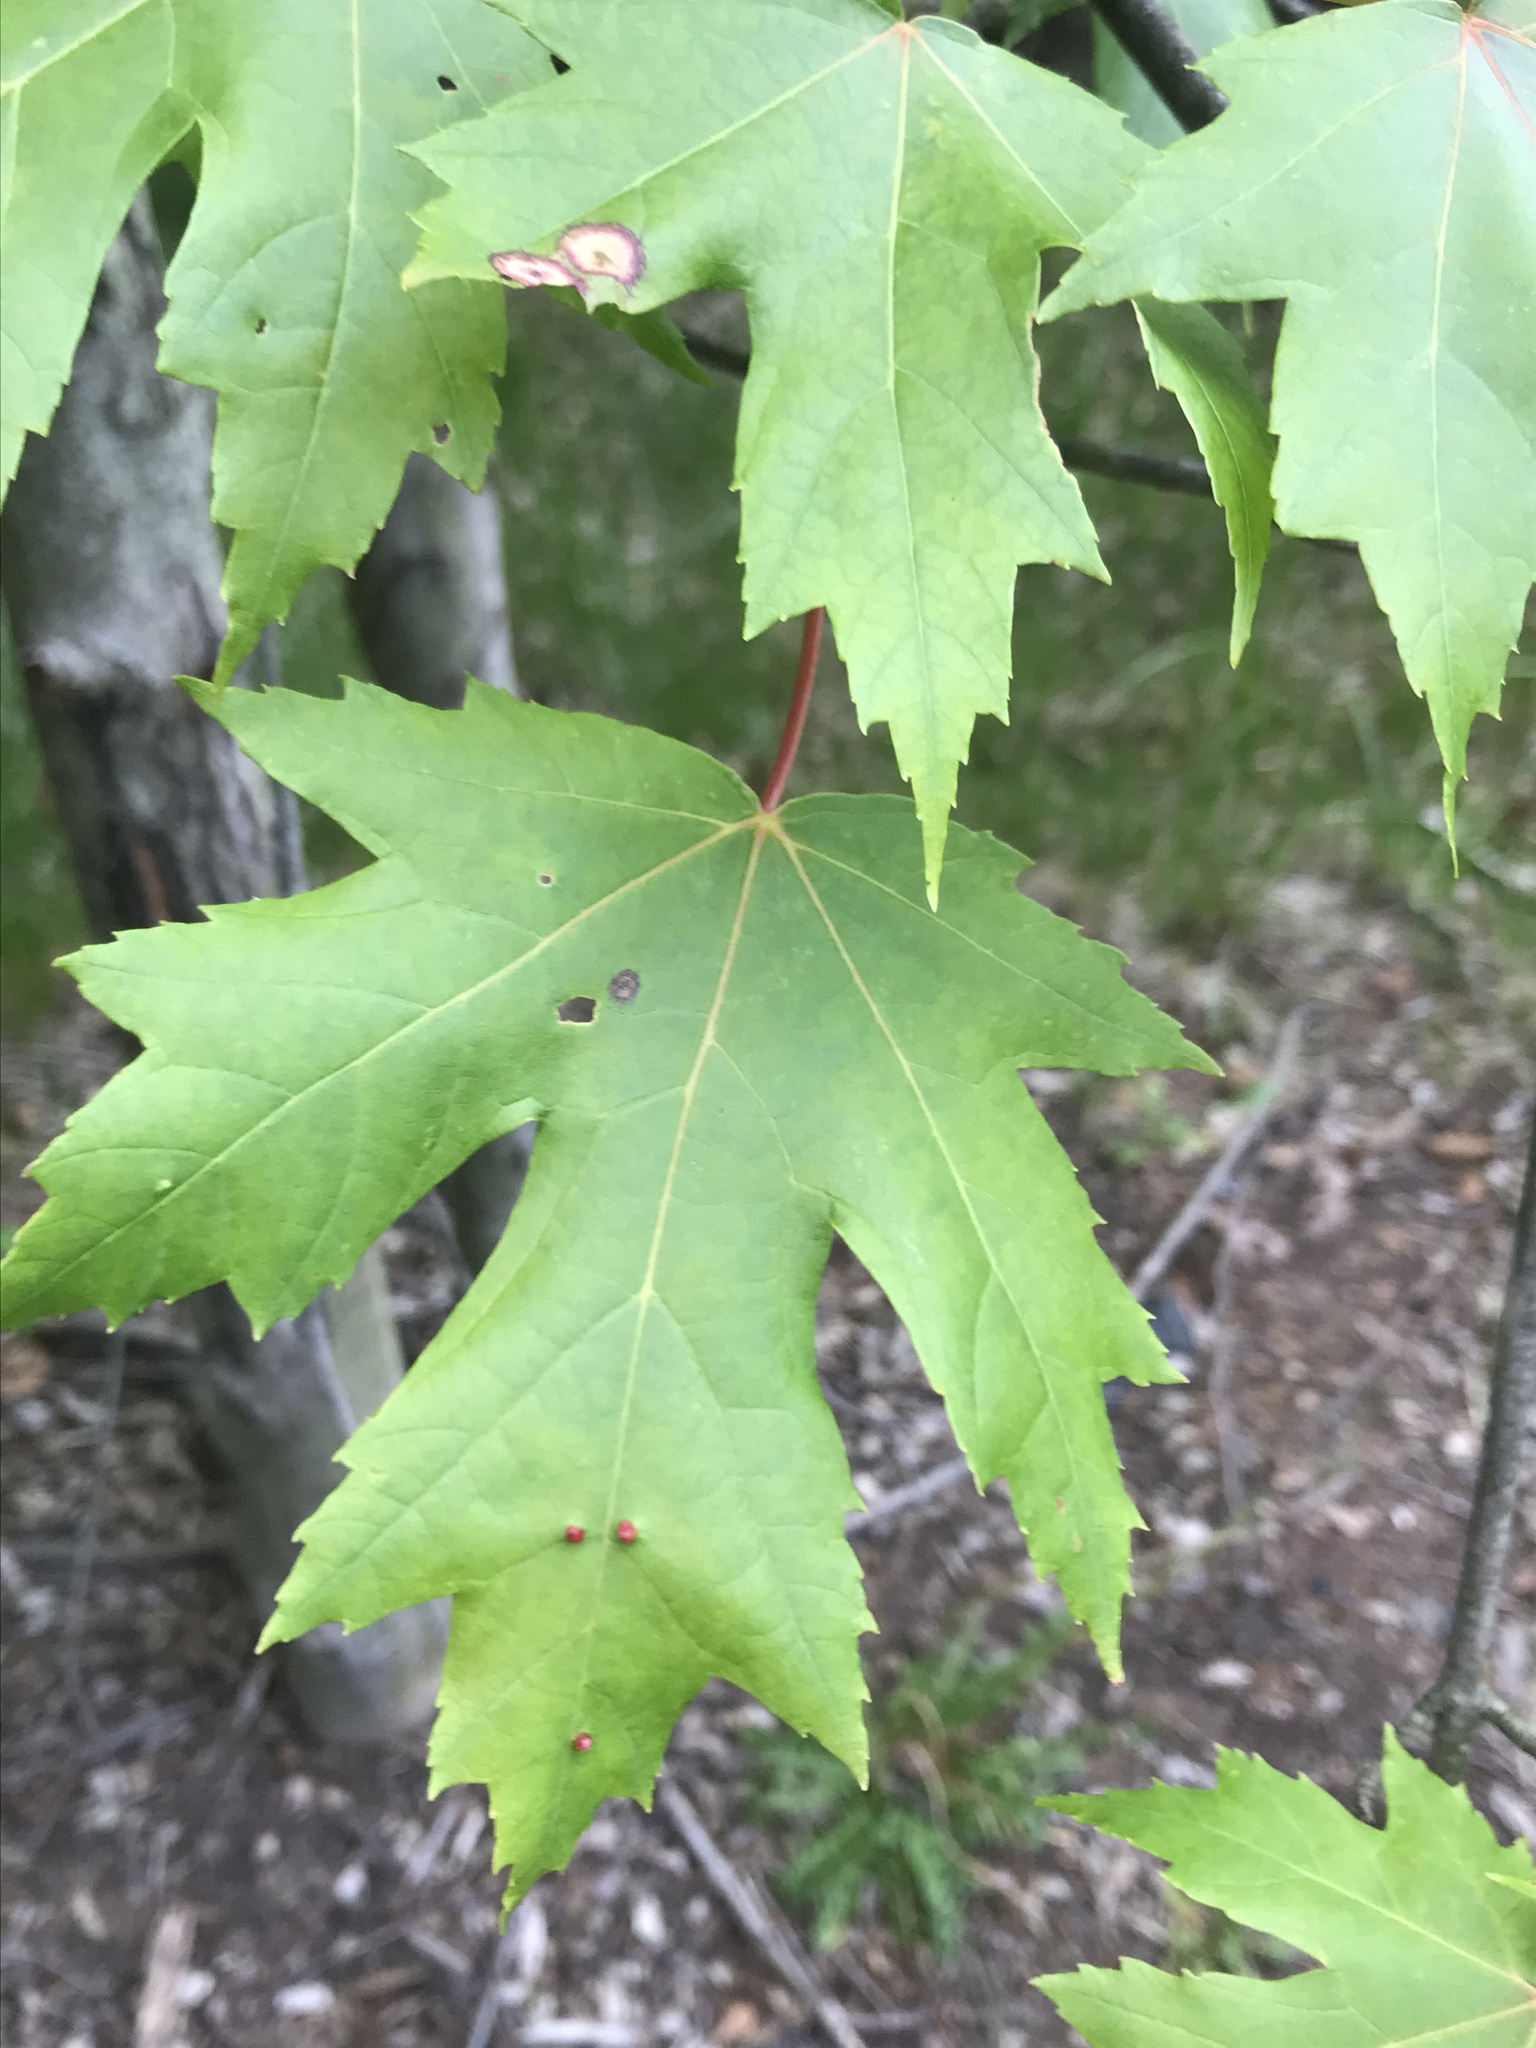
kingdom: Plantae
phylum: Tracheophyta
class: Magnoliopsida
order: Sapindales
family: Sapindaceae
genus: Acer
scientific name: Acer saccharinum
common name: Silver maple
